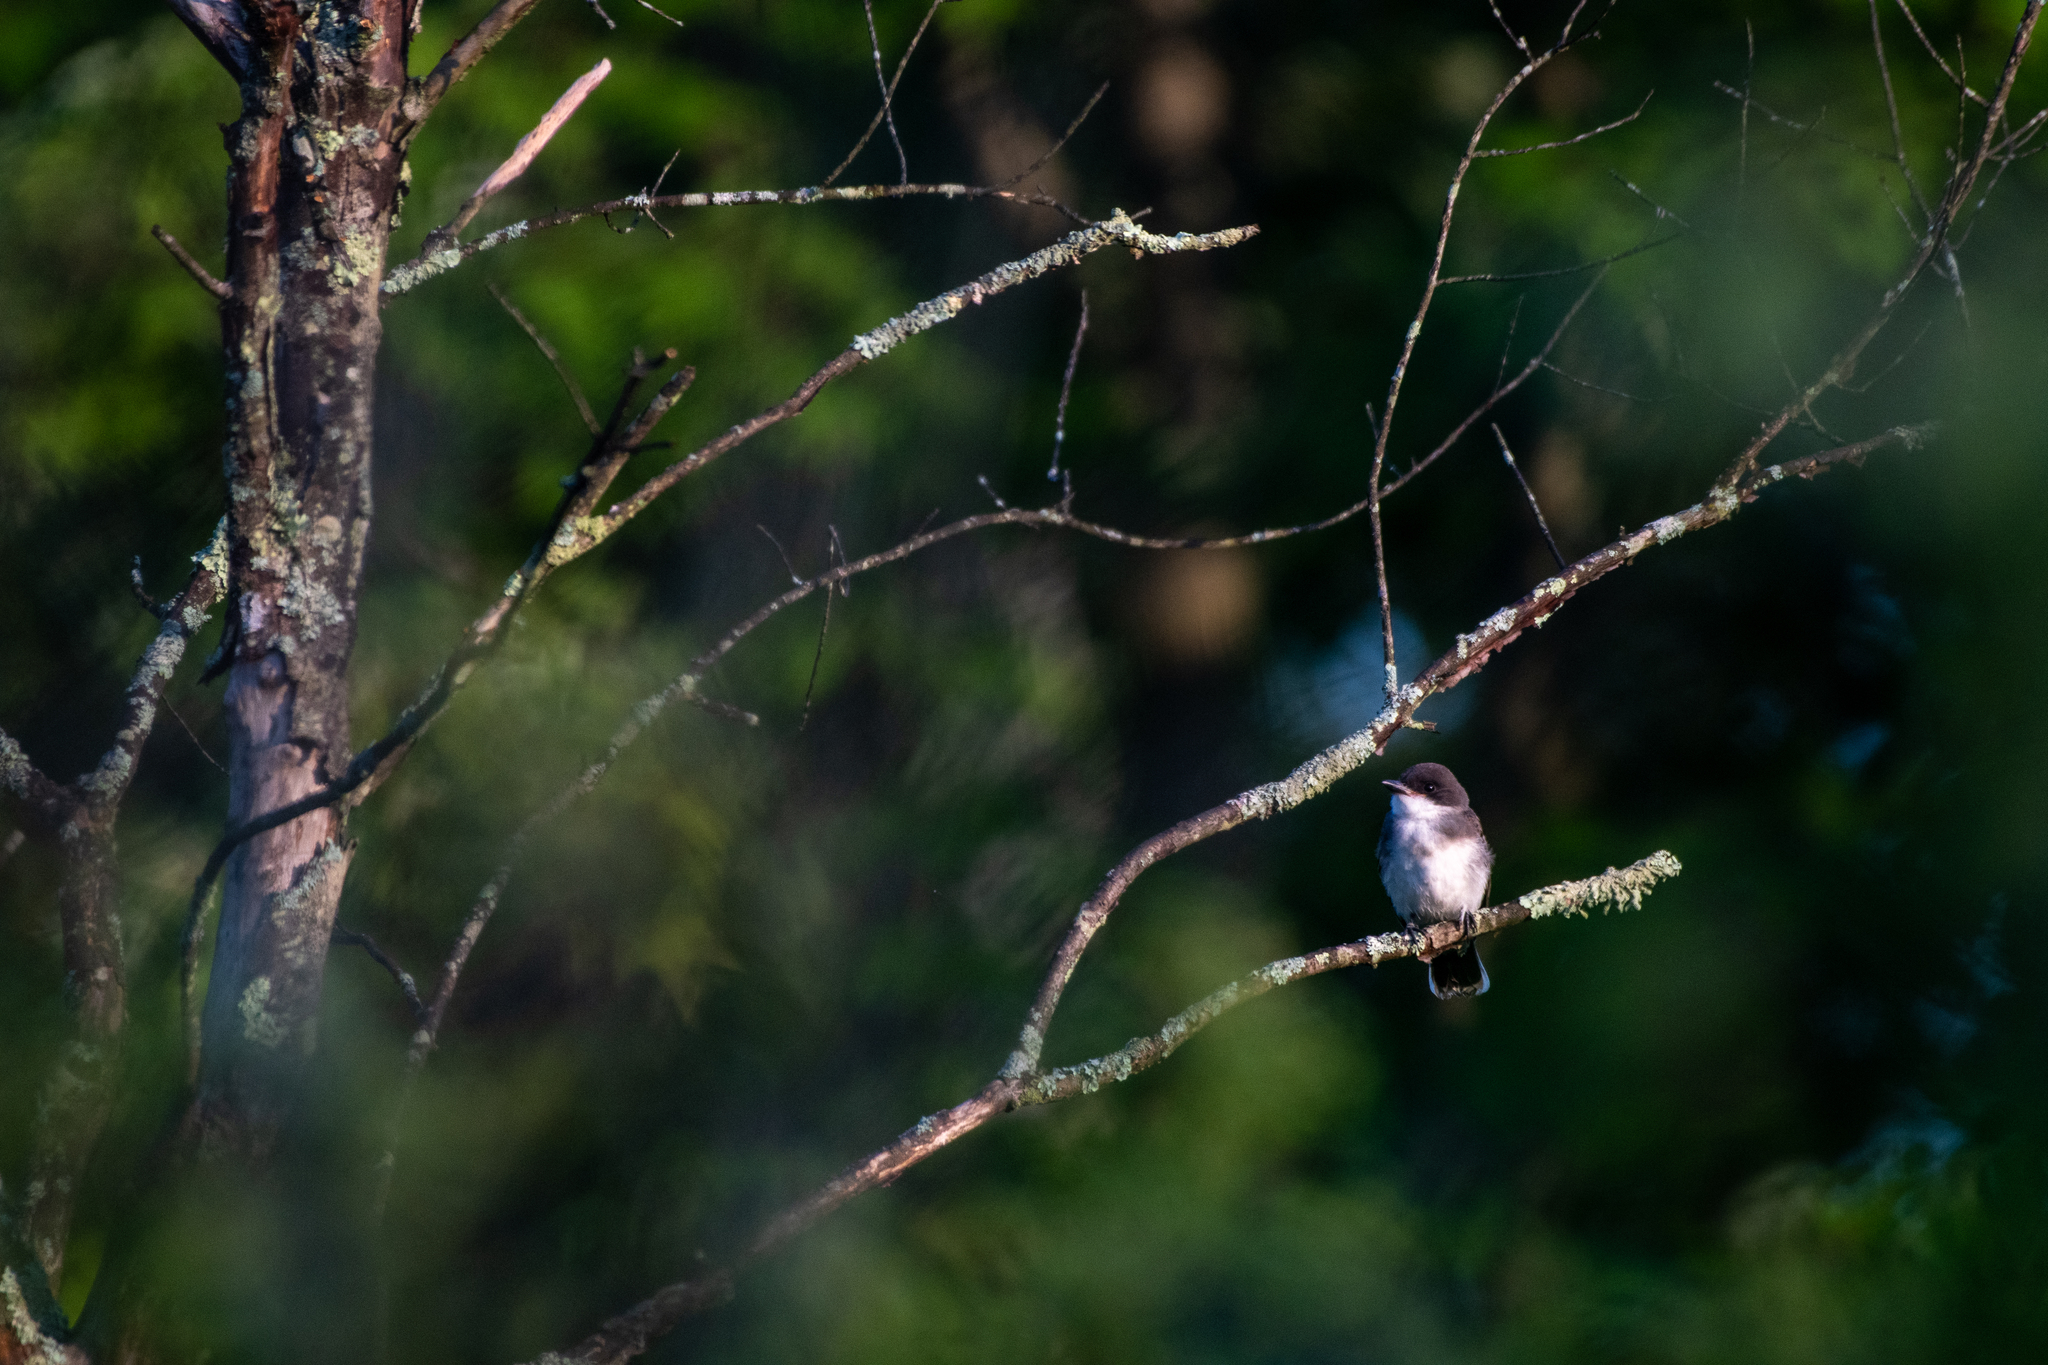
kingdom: Animalia
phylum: Chordata
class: Aves
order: Passeriformes
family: Tyrannidae
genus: Tyrannus
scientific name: Tyrannus tyrannus
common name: Eastern kingbird
